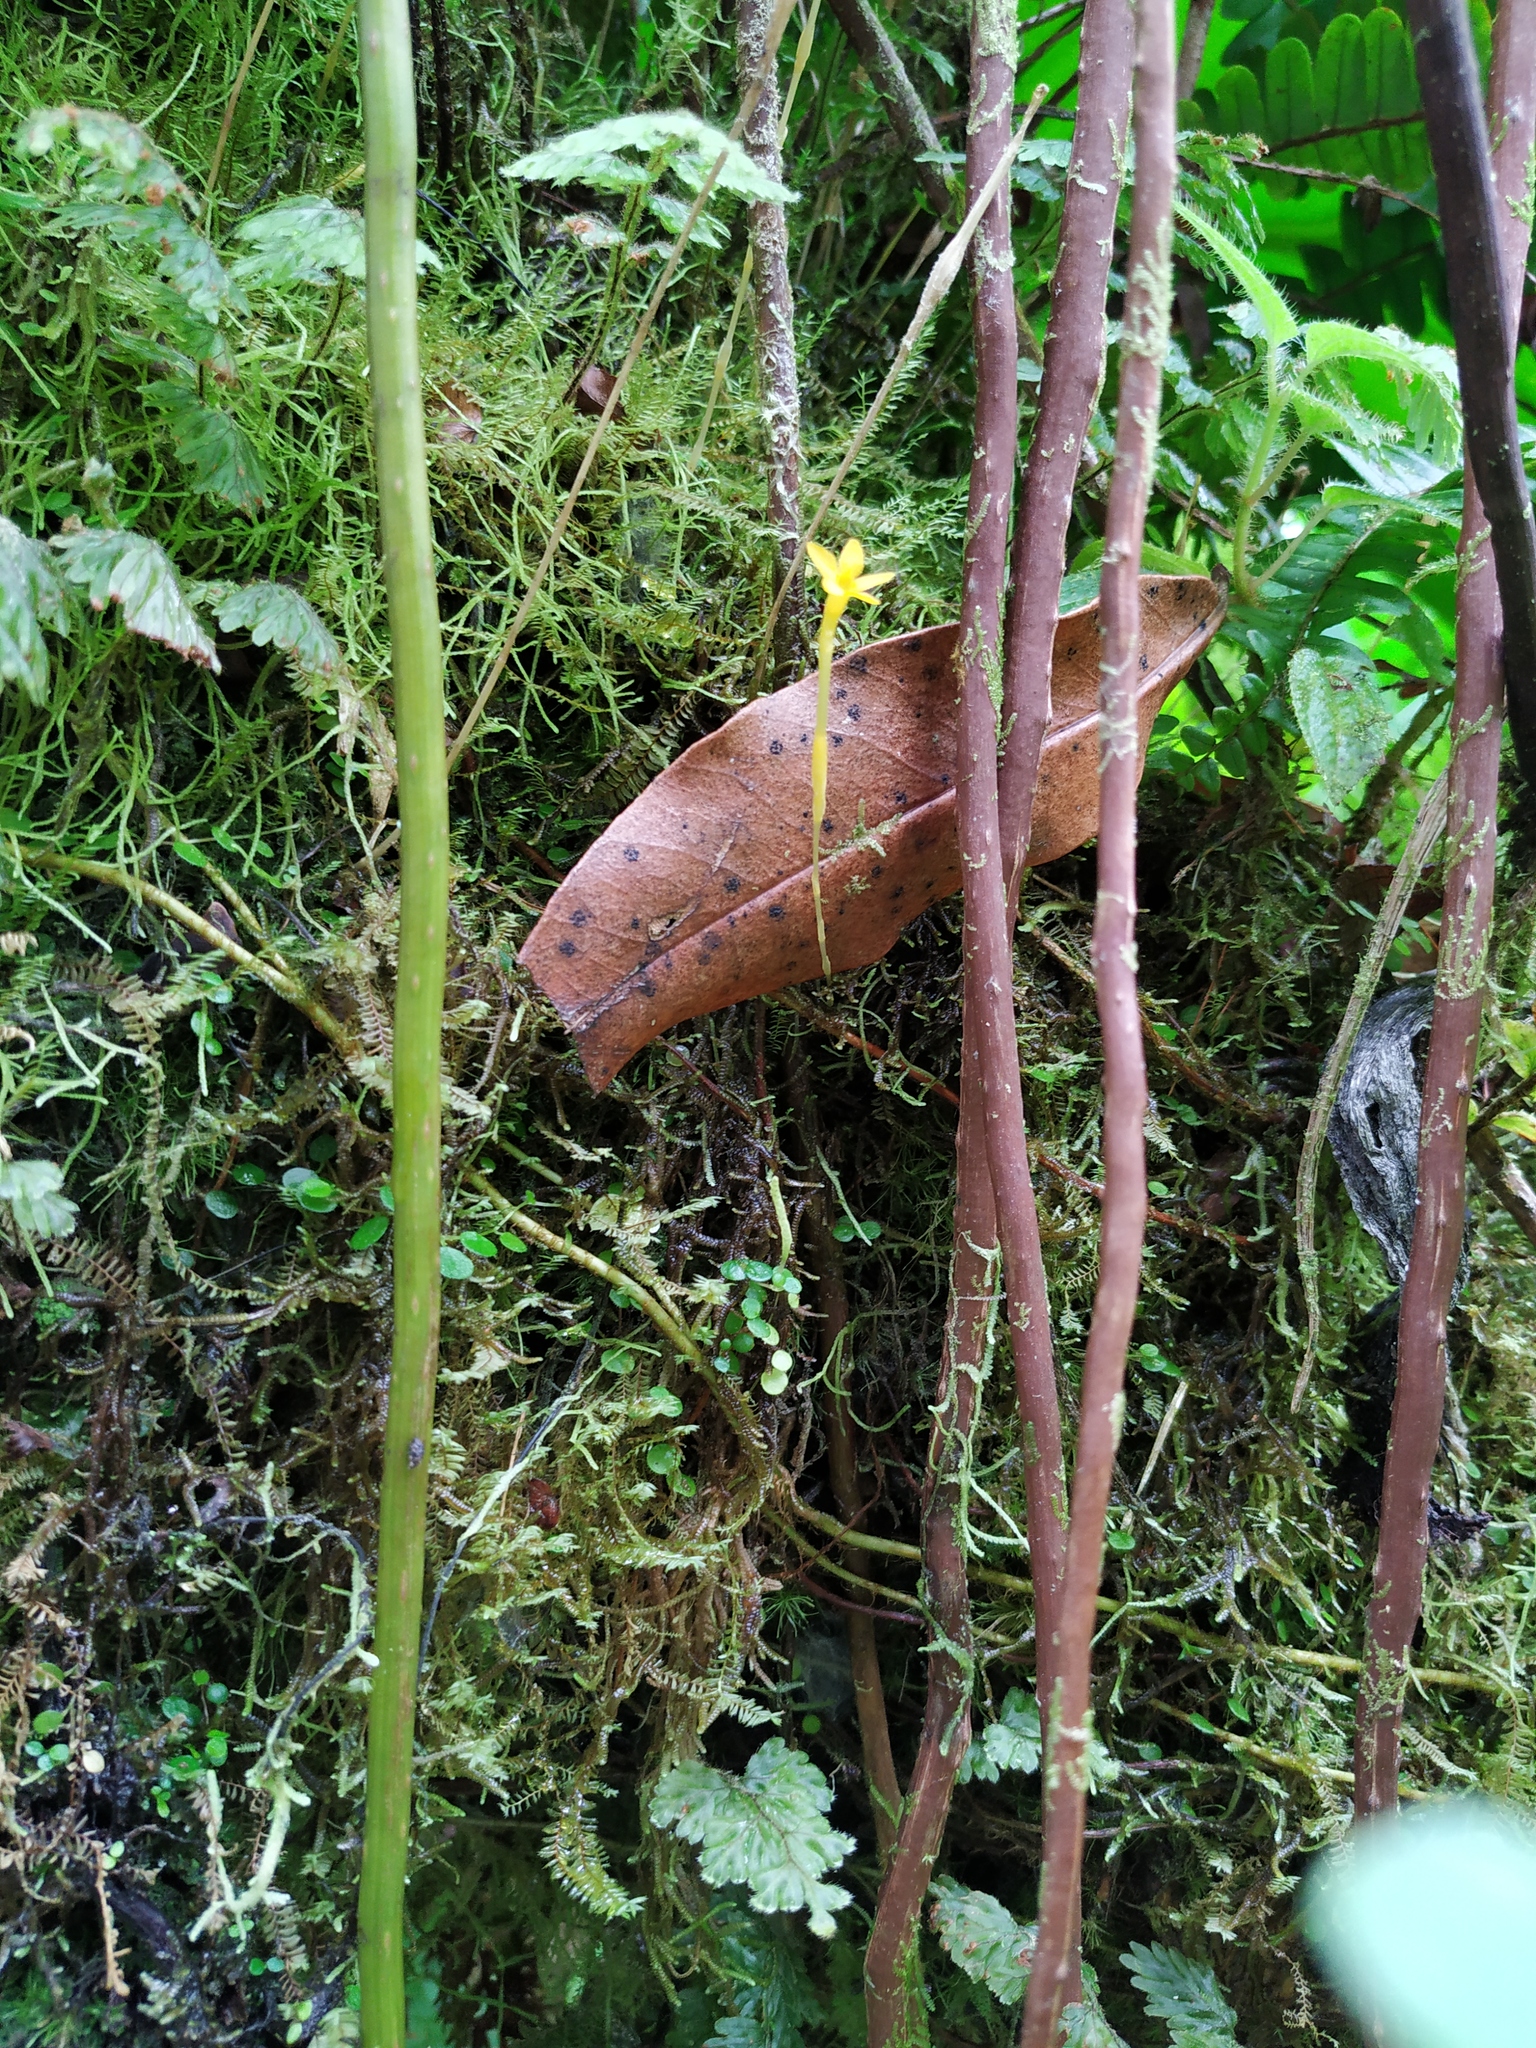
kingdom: Plantae
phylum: Tracheophyta
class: Magnoliopsida
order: Gentianales
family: Gentianaceae
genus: Voyria
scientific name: Voyria aphylla
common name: Leafless ghost plant
